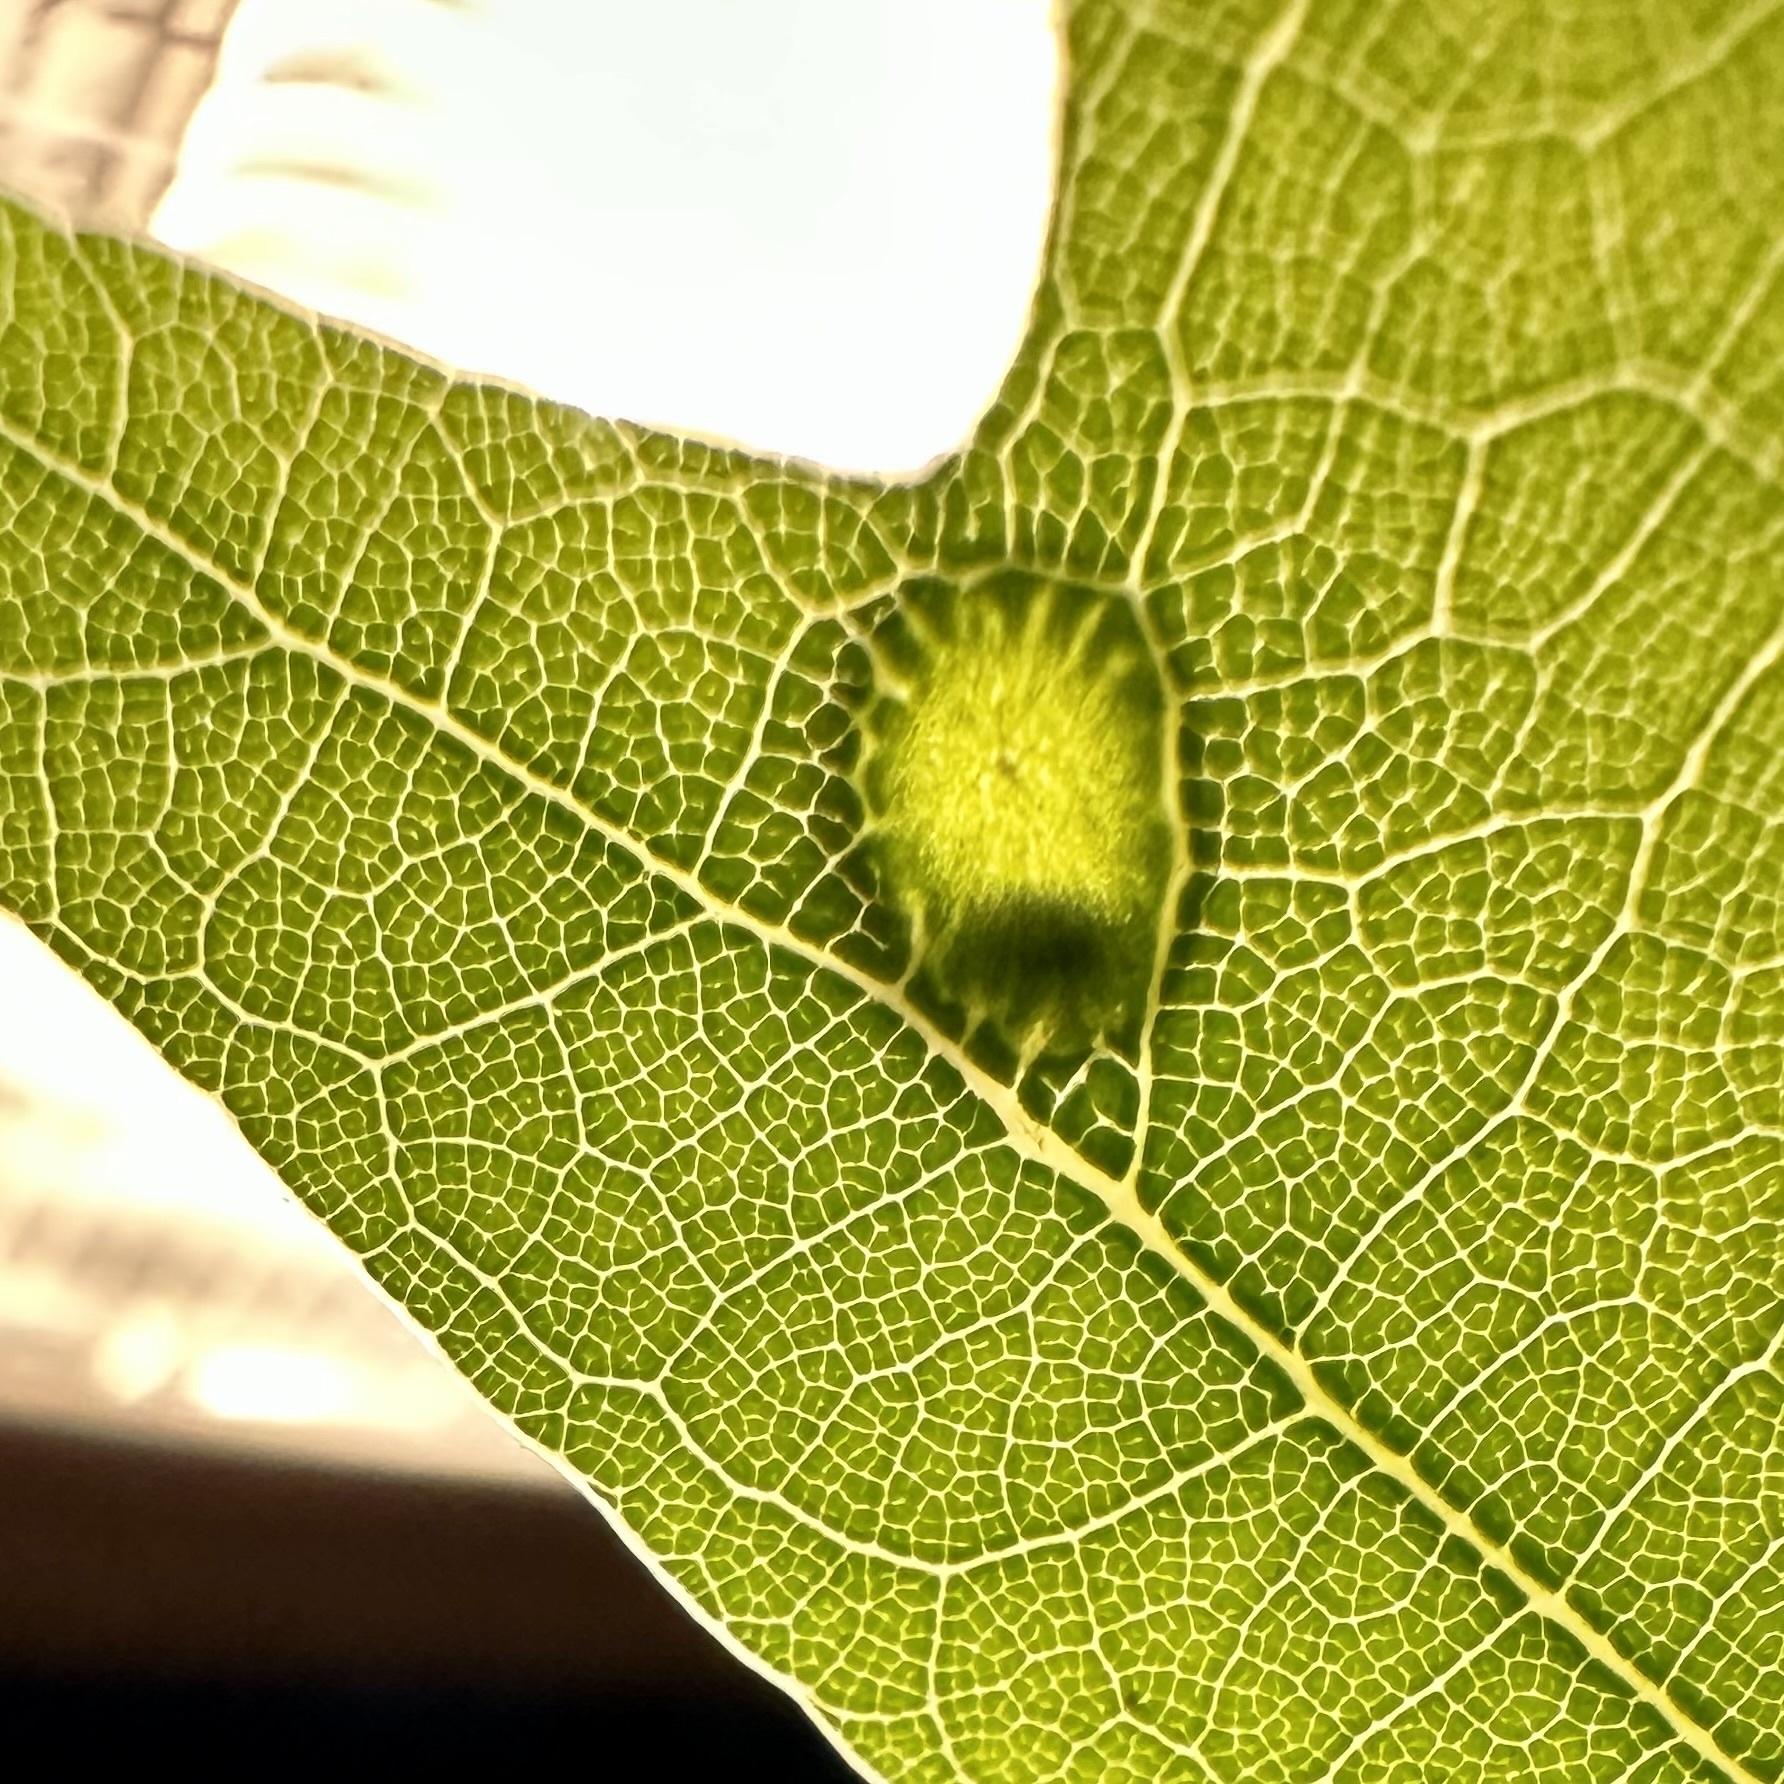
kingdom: Animalia
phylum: Arthropoda
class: Insecta
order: Hymenoptera
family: Cynipidae
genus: Dryocosmus
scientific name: Dryocosmus
